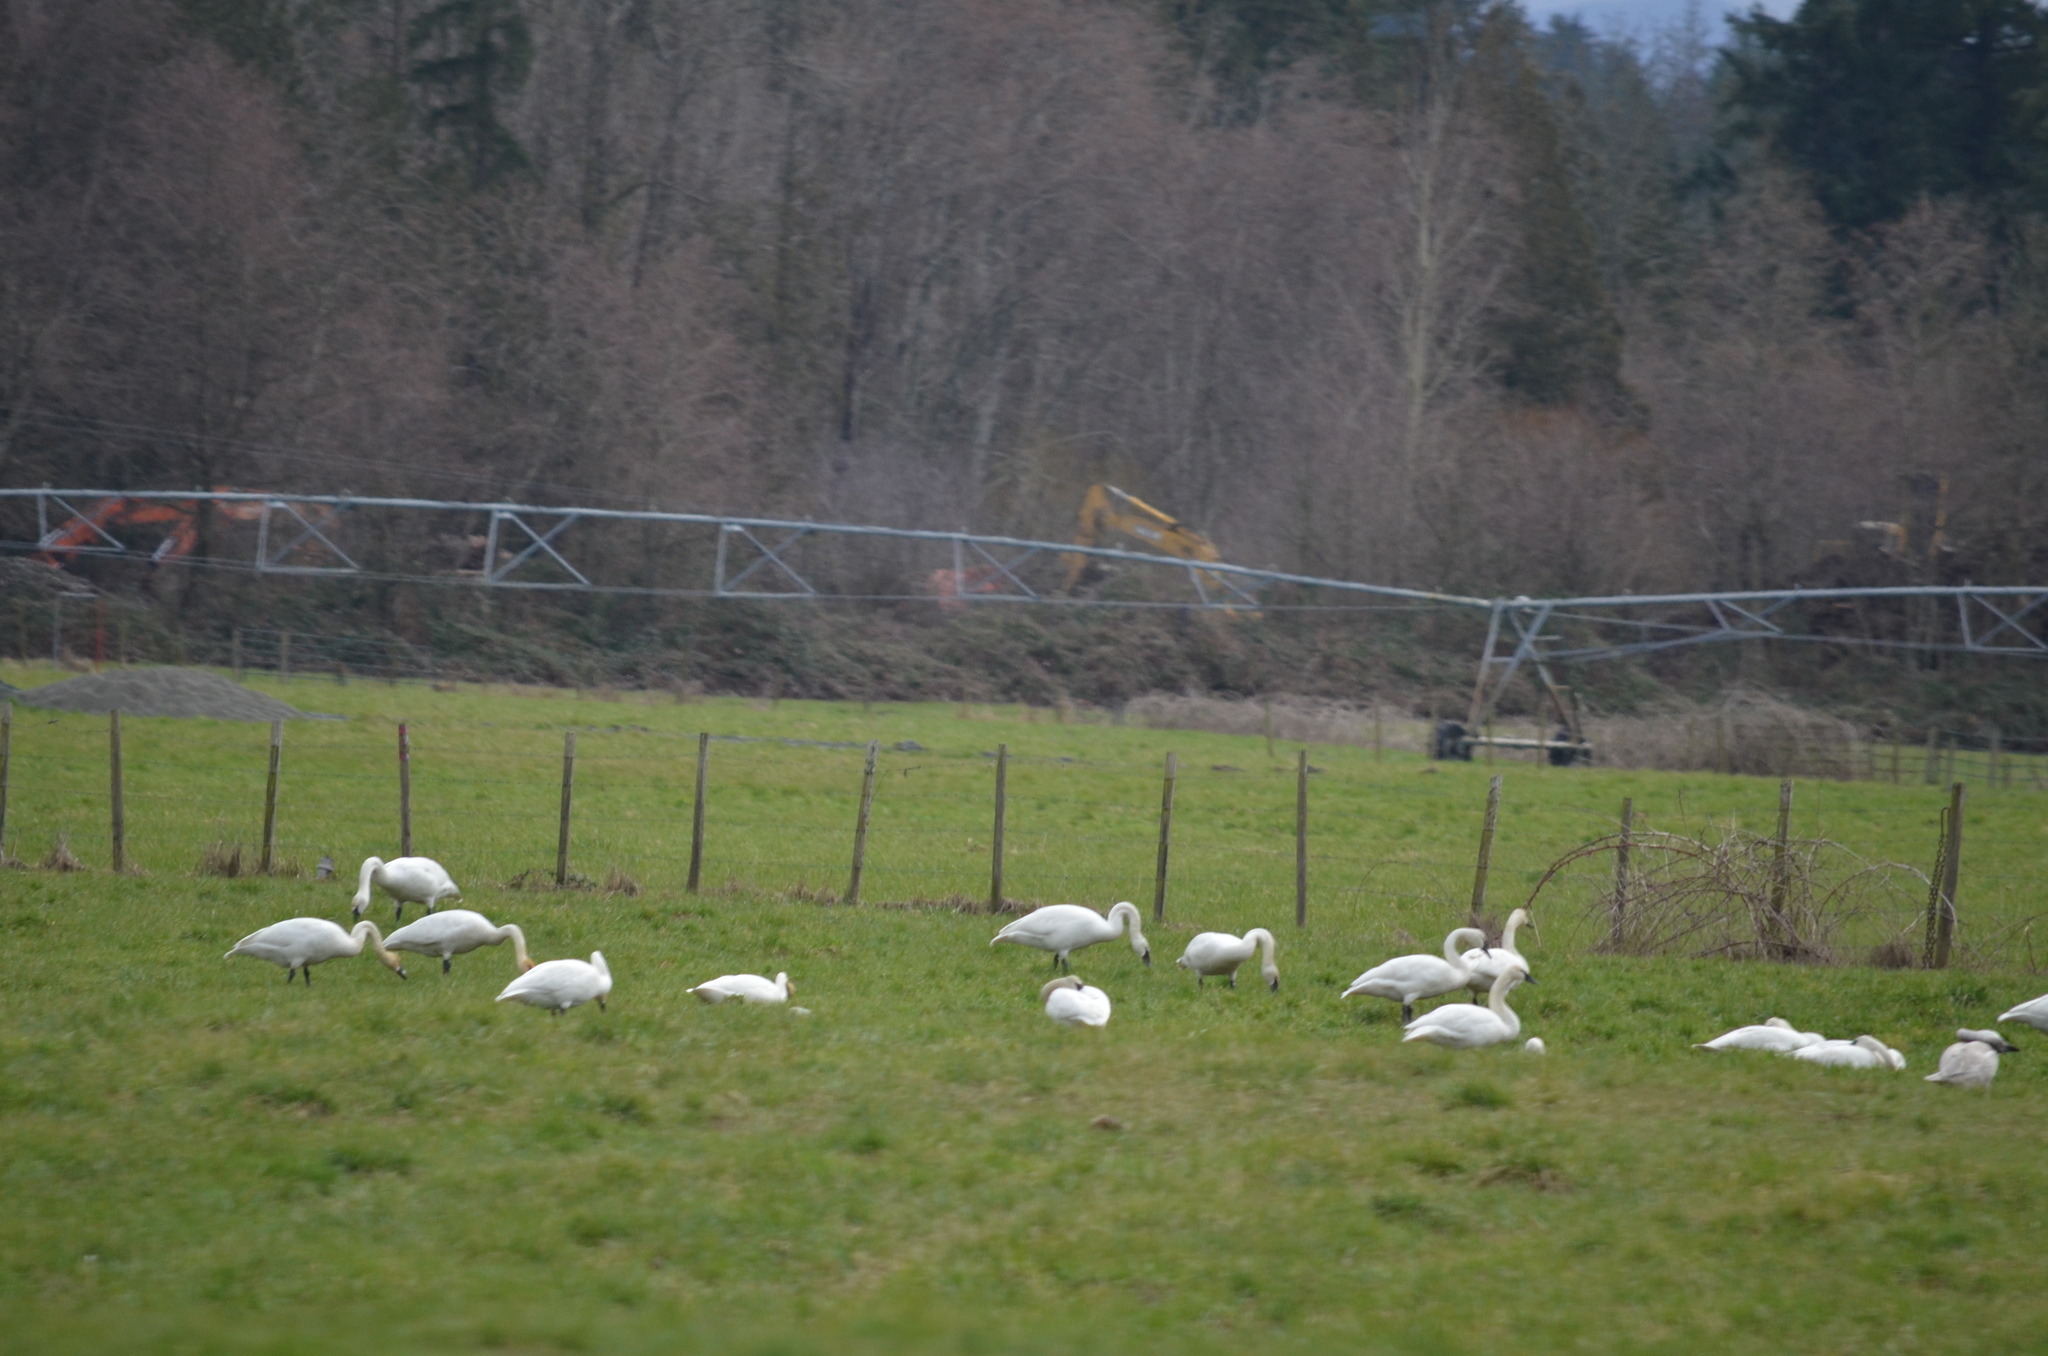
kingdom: Animalia
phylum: Chordata
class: Aves
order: Anseriformes
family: Anatidae
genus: Cygnus
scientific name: Cygnus buccinator
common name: Trumpeter swan
